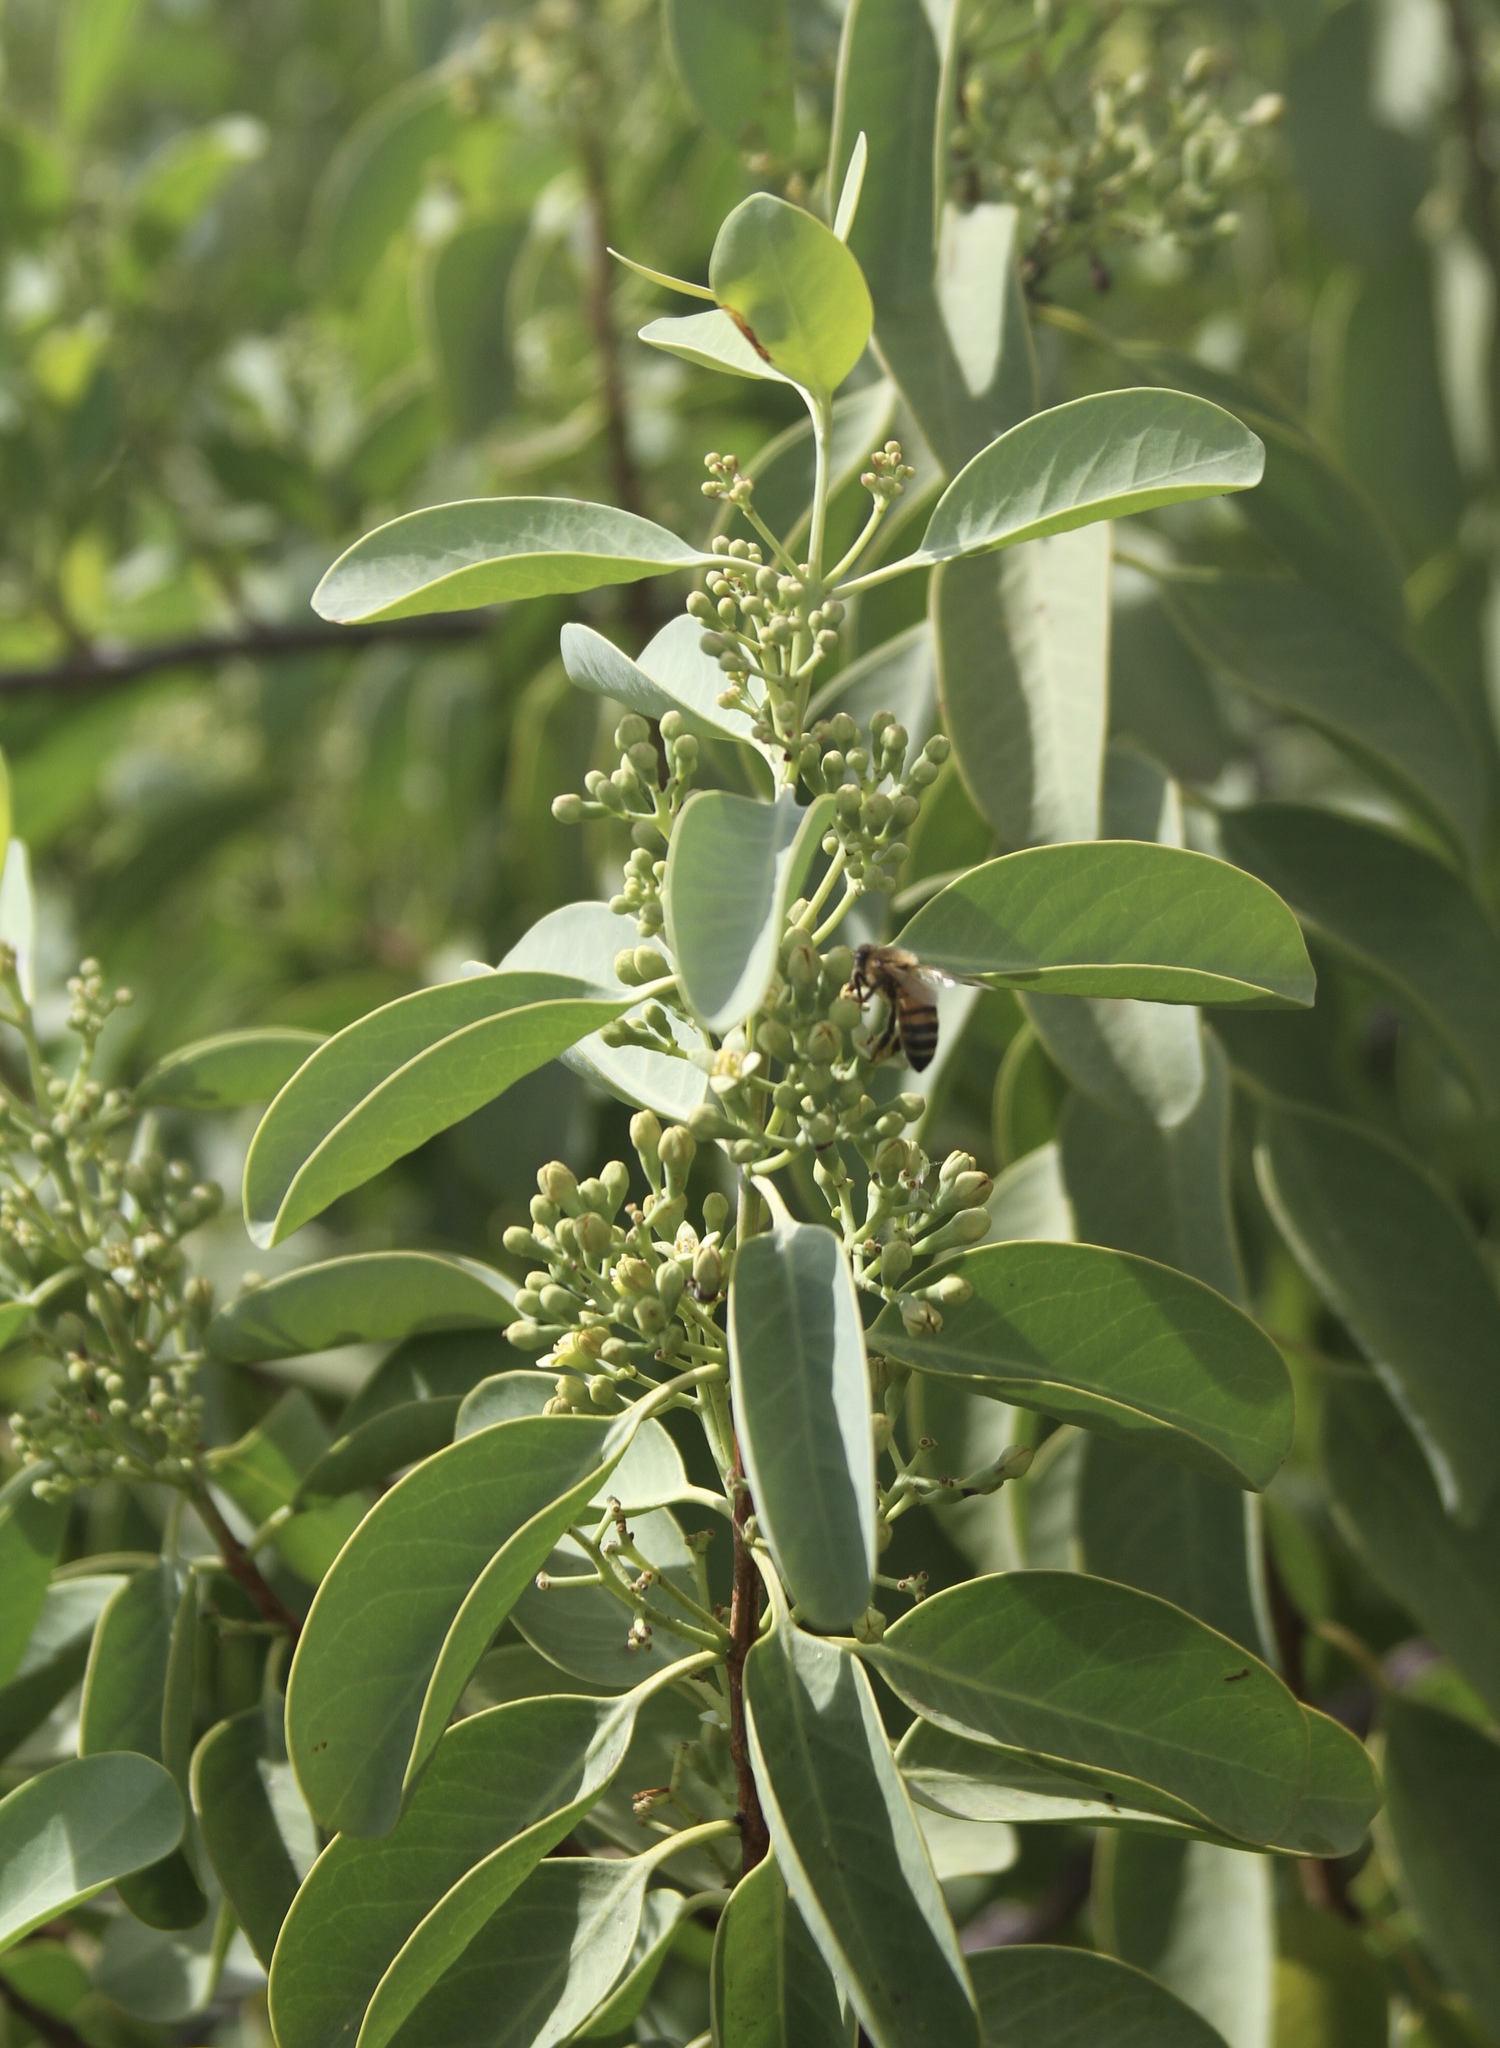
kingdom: Animalia
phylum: Arthropoda
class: Insecta
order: Hymenoptera
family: Apidae
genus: Apis
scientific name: Apis mellifera
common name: Honey bee
